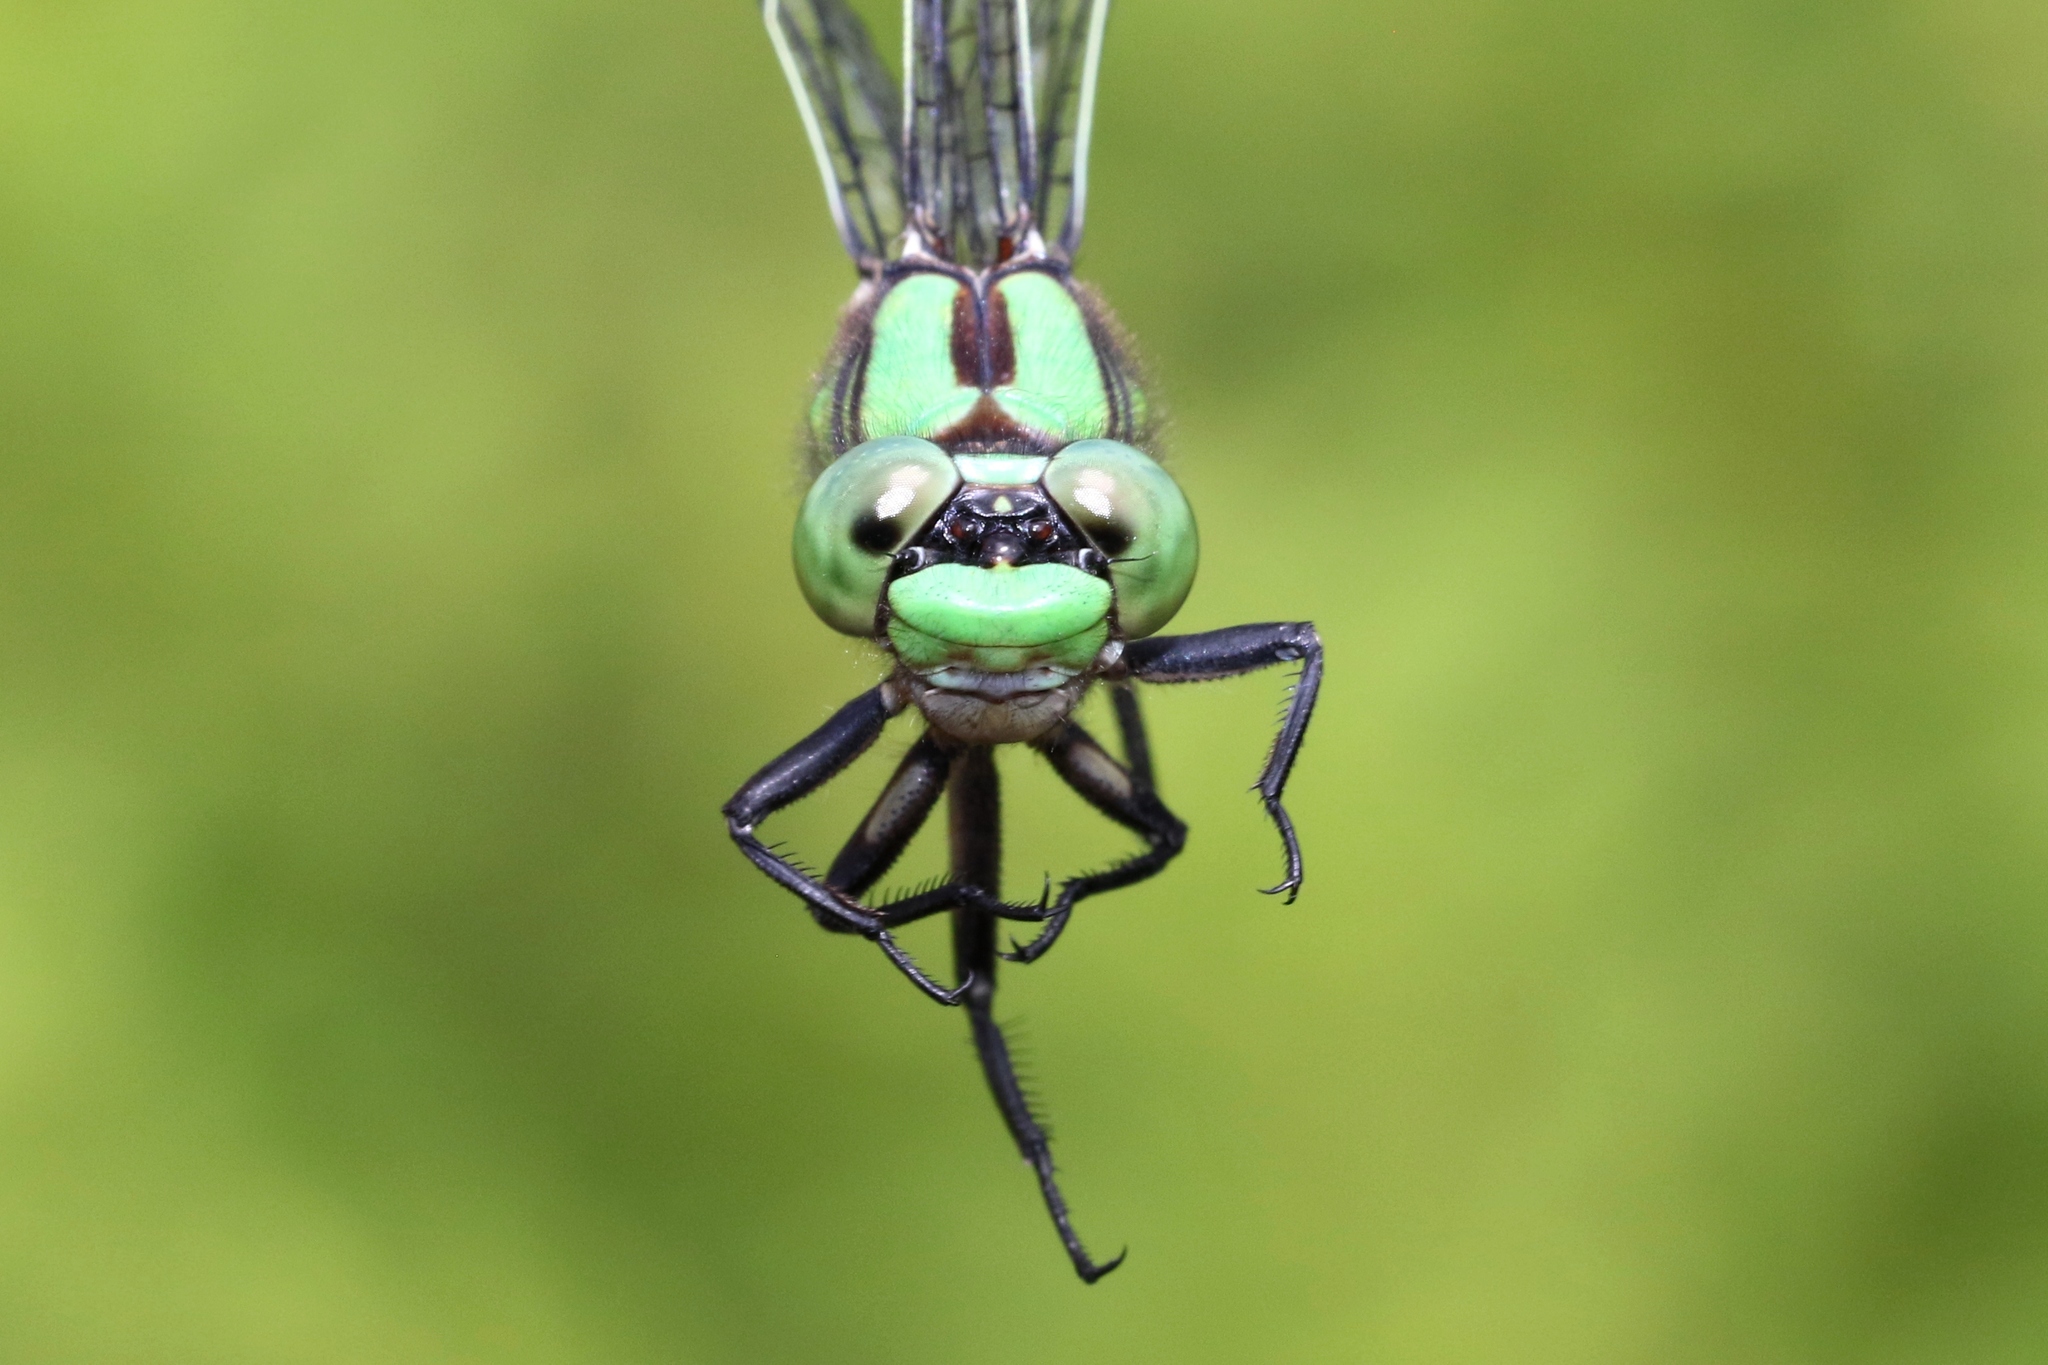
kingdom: Animalia
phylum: Arthropoda
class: Insecta
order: Odonata
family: Gomphidae
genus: Ophiogomphus
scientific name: Ophiogomphus aspersus
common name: Brook snaketail
